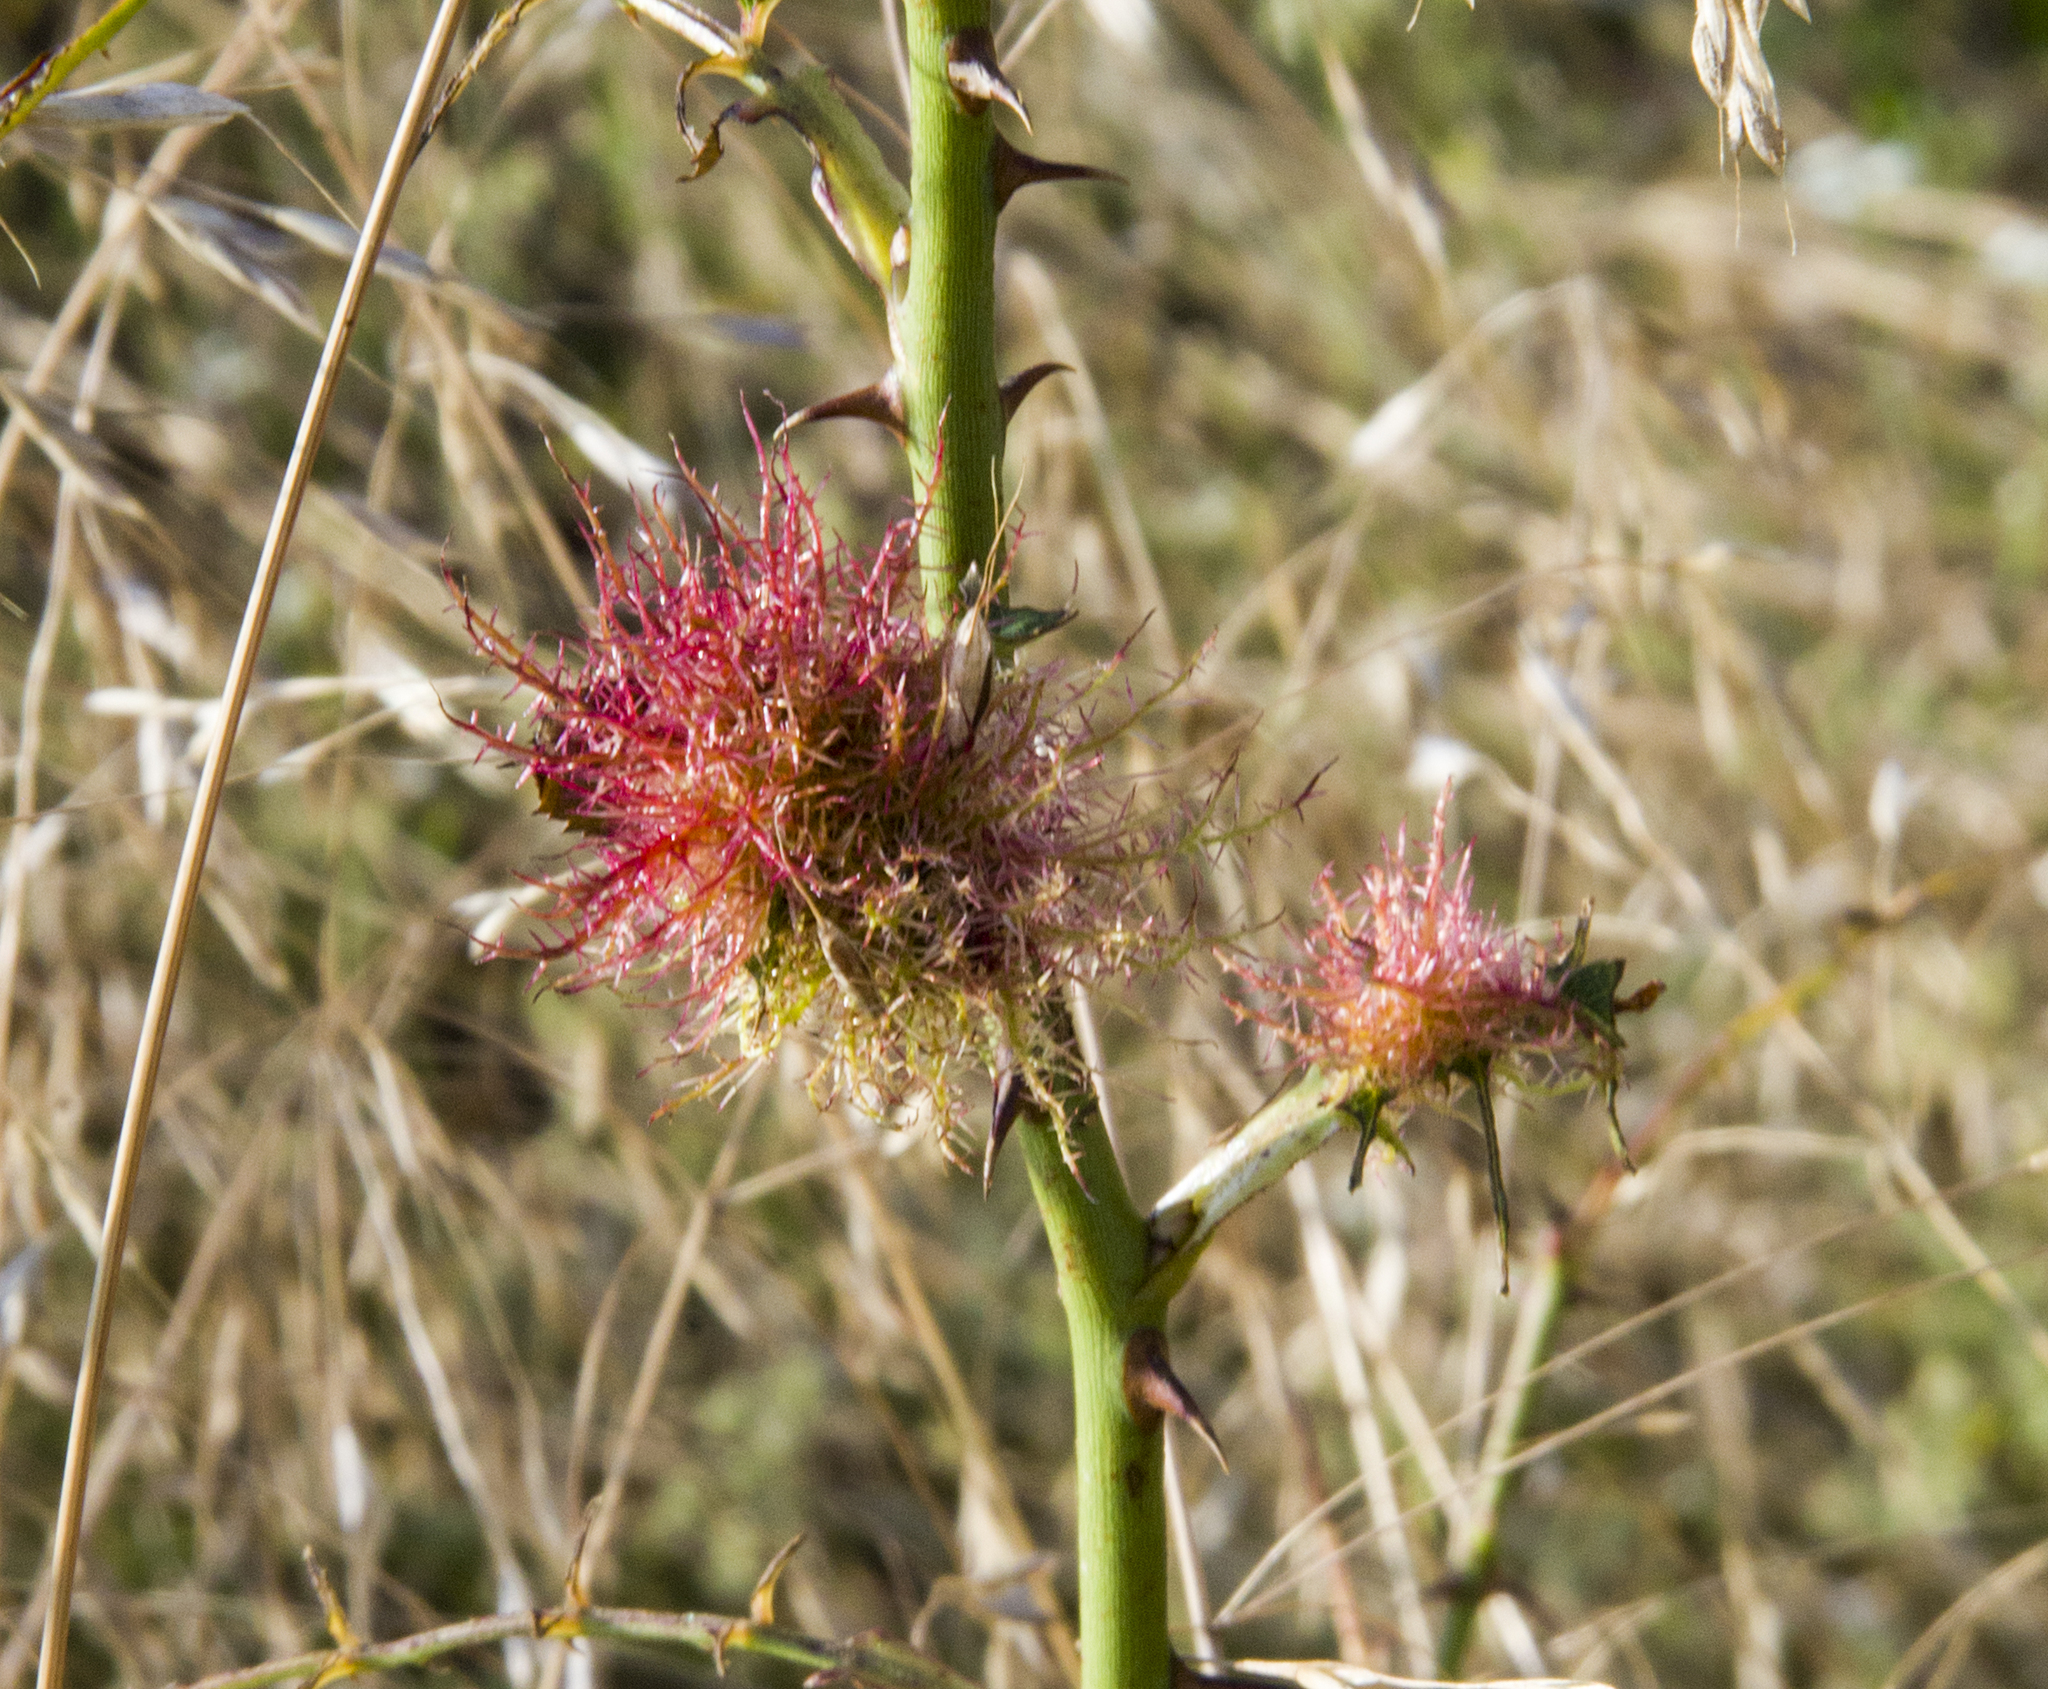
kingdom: Animalia
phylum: Arthropoda
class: Insecta
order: Hymenoptera
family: Cynipidae
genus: Diplolepis
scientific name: Diplolepis rosae
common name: Bedeguar gall
